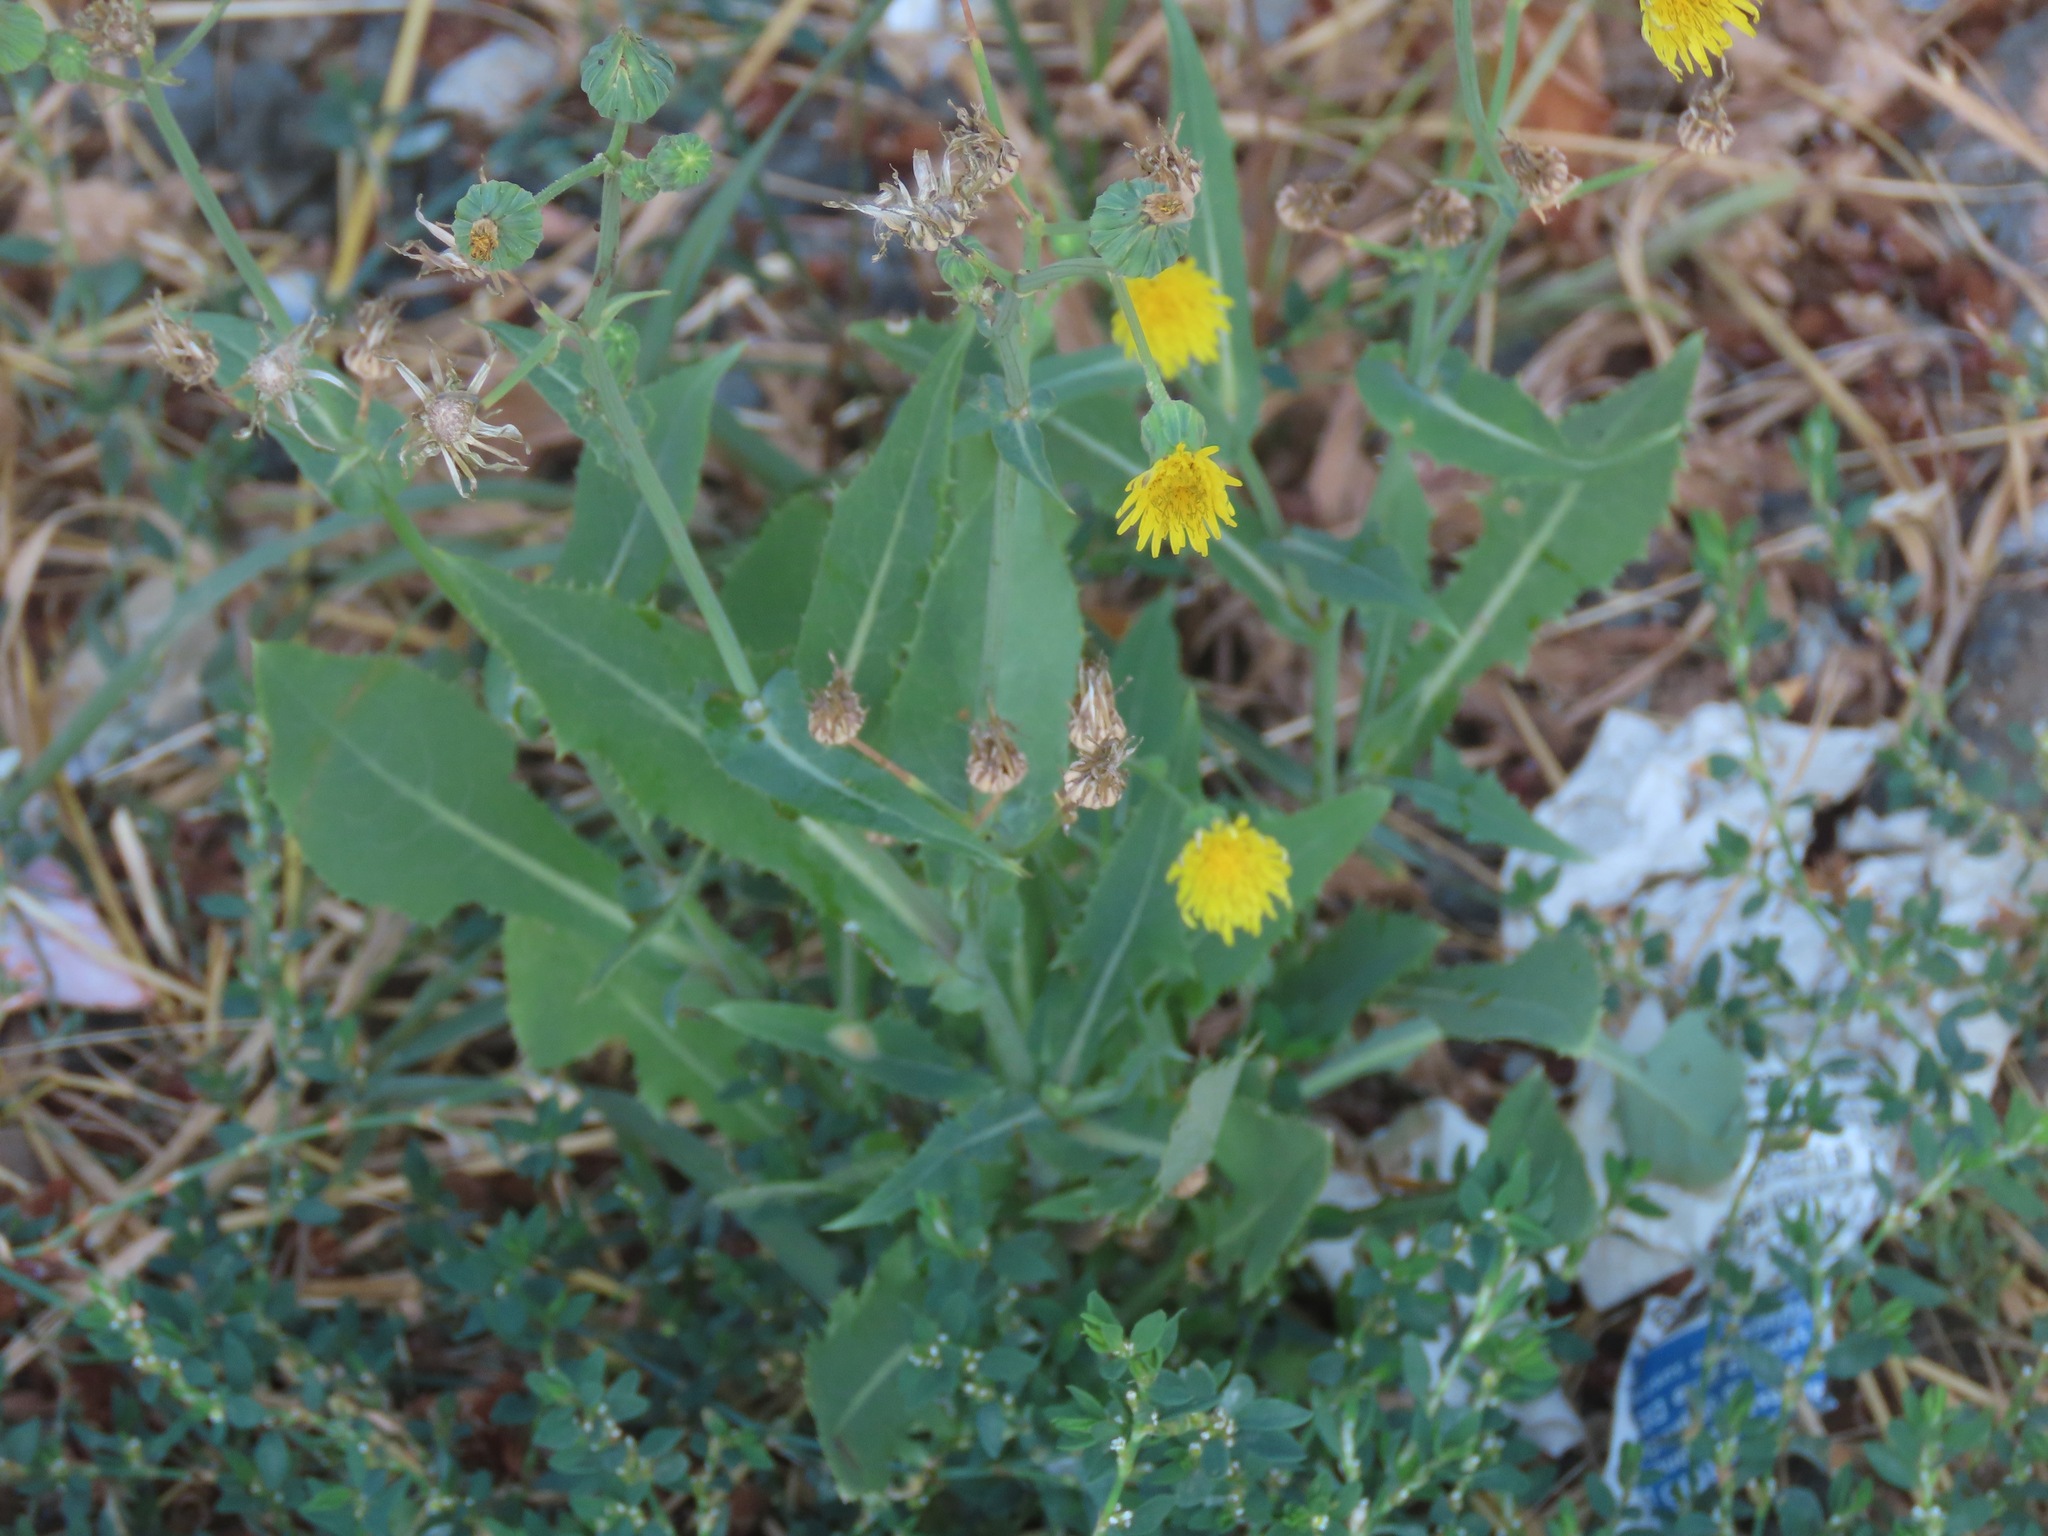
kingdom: Plantae
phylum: Tracheophyta
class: Magnoliopsida
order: Asterales
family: Asteraceae
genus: Lactuca
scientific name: Lactuca serriola
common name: Prickly lettuce
